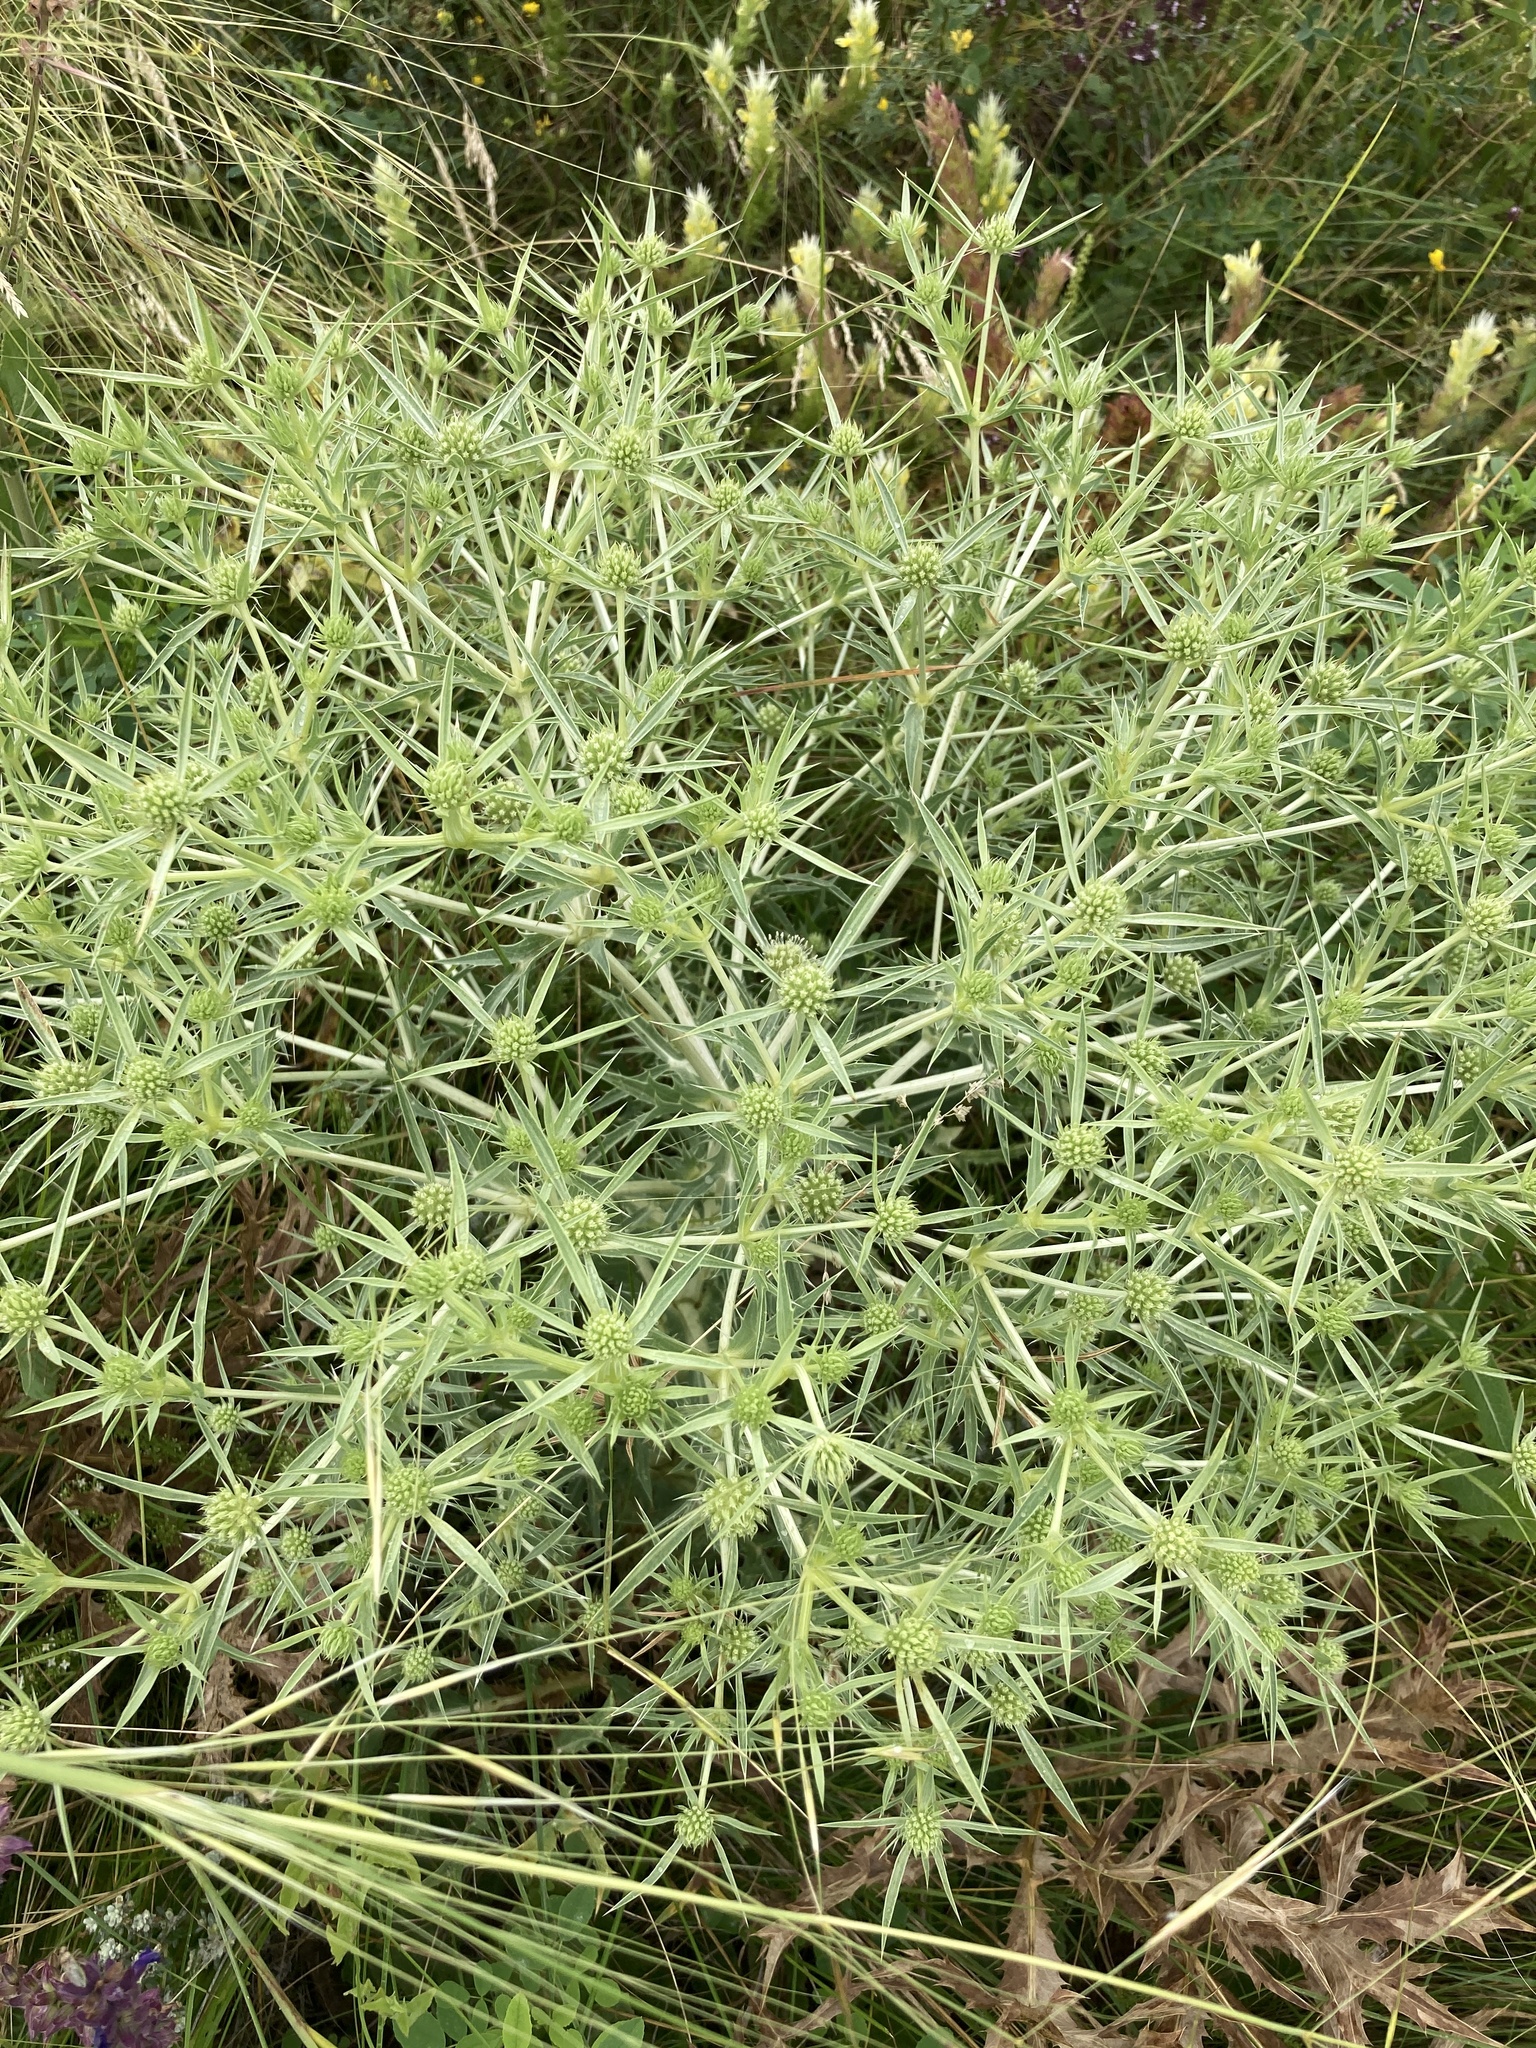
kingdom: Plantae
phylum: Tracheophyta
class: Magnoliopsida
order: Apiales
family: Apiaceae
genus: Eryngium
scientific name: Eryngium campestre
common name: Field eryngo
